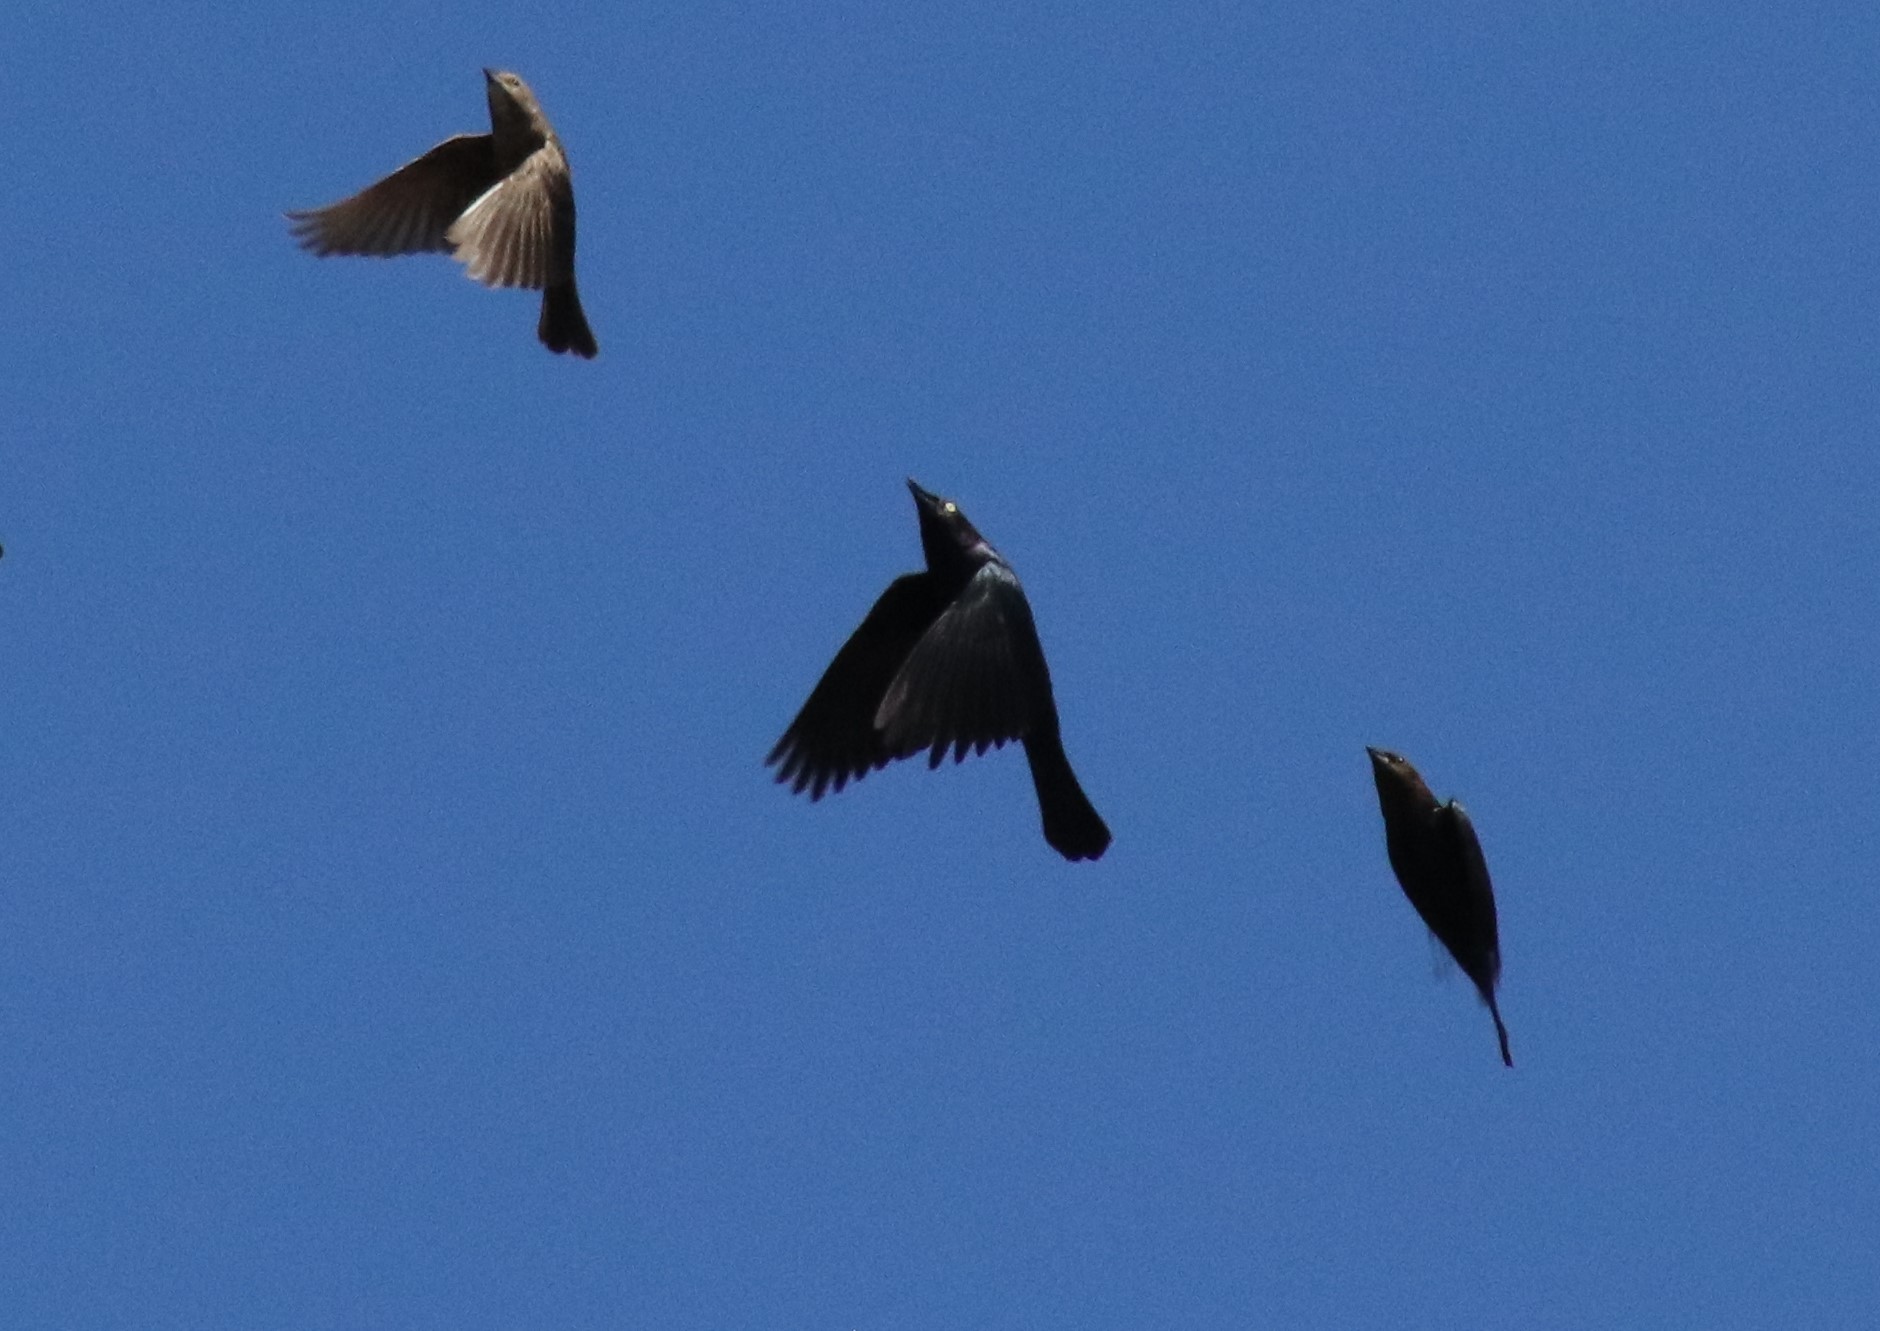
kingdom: Animalia
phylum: Chordata
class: Aves
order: Passeriformes
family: Icteridae
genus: Euphagus
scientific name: Euphagus cyanocephalus
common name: Brewer's blackbird
